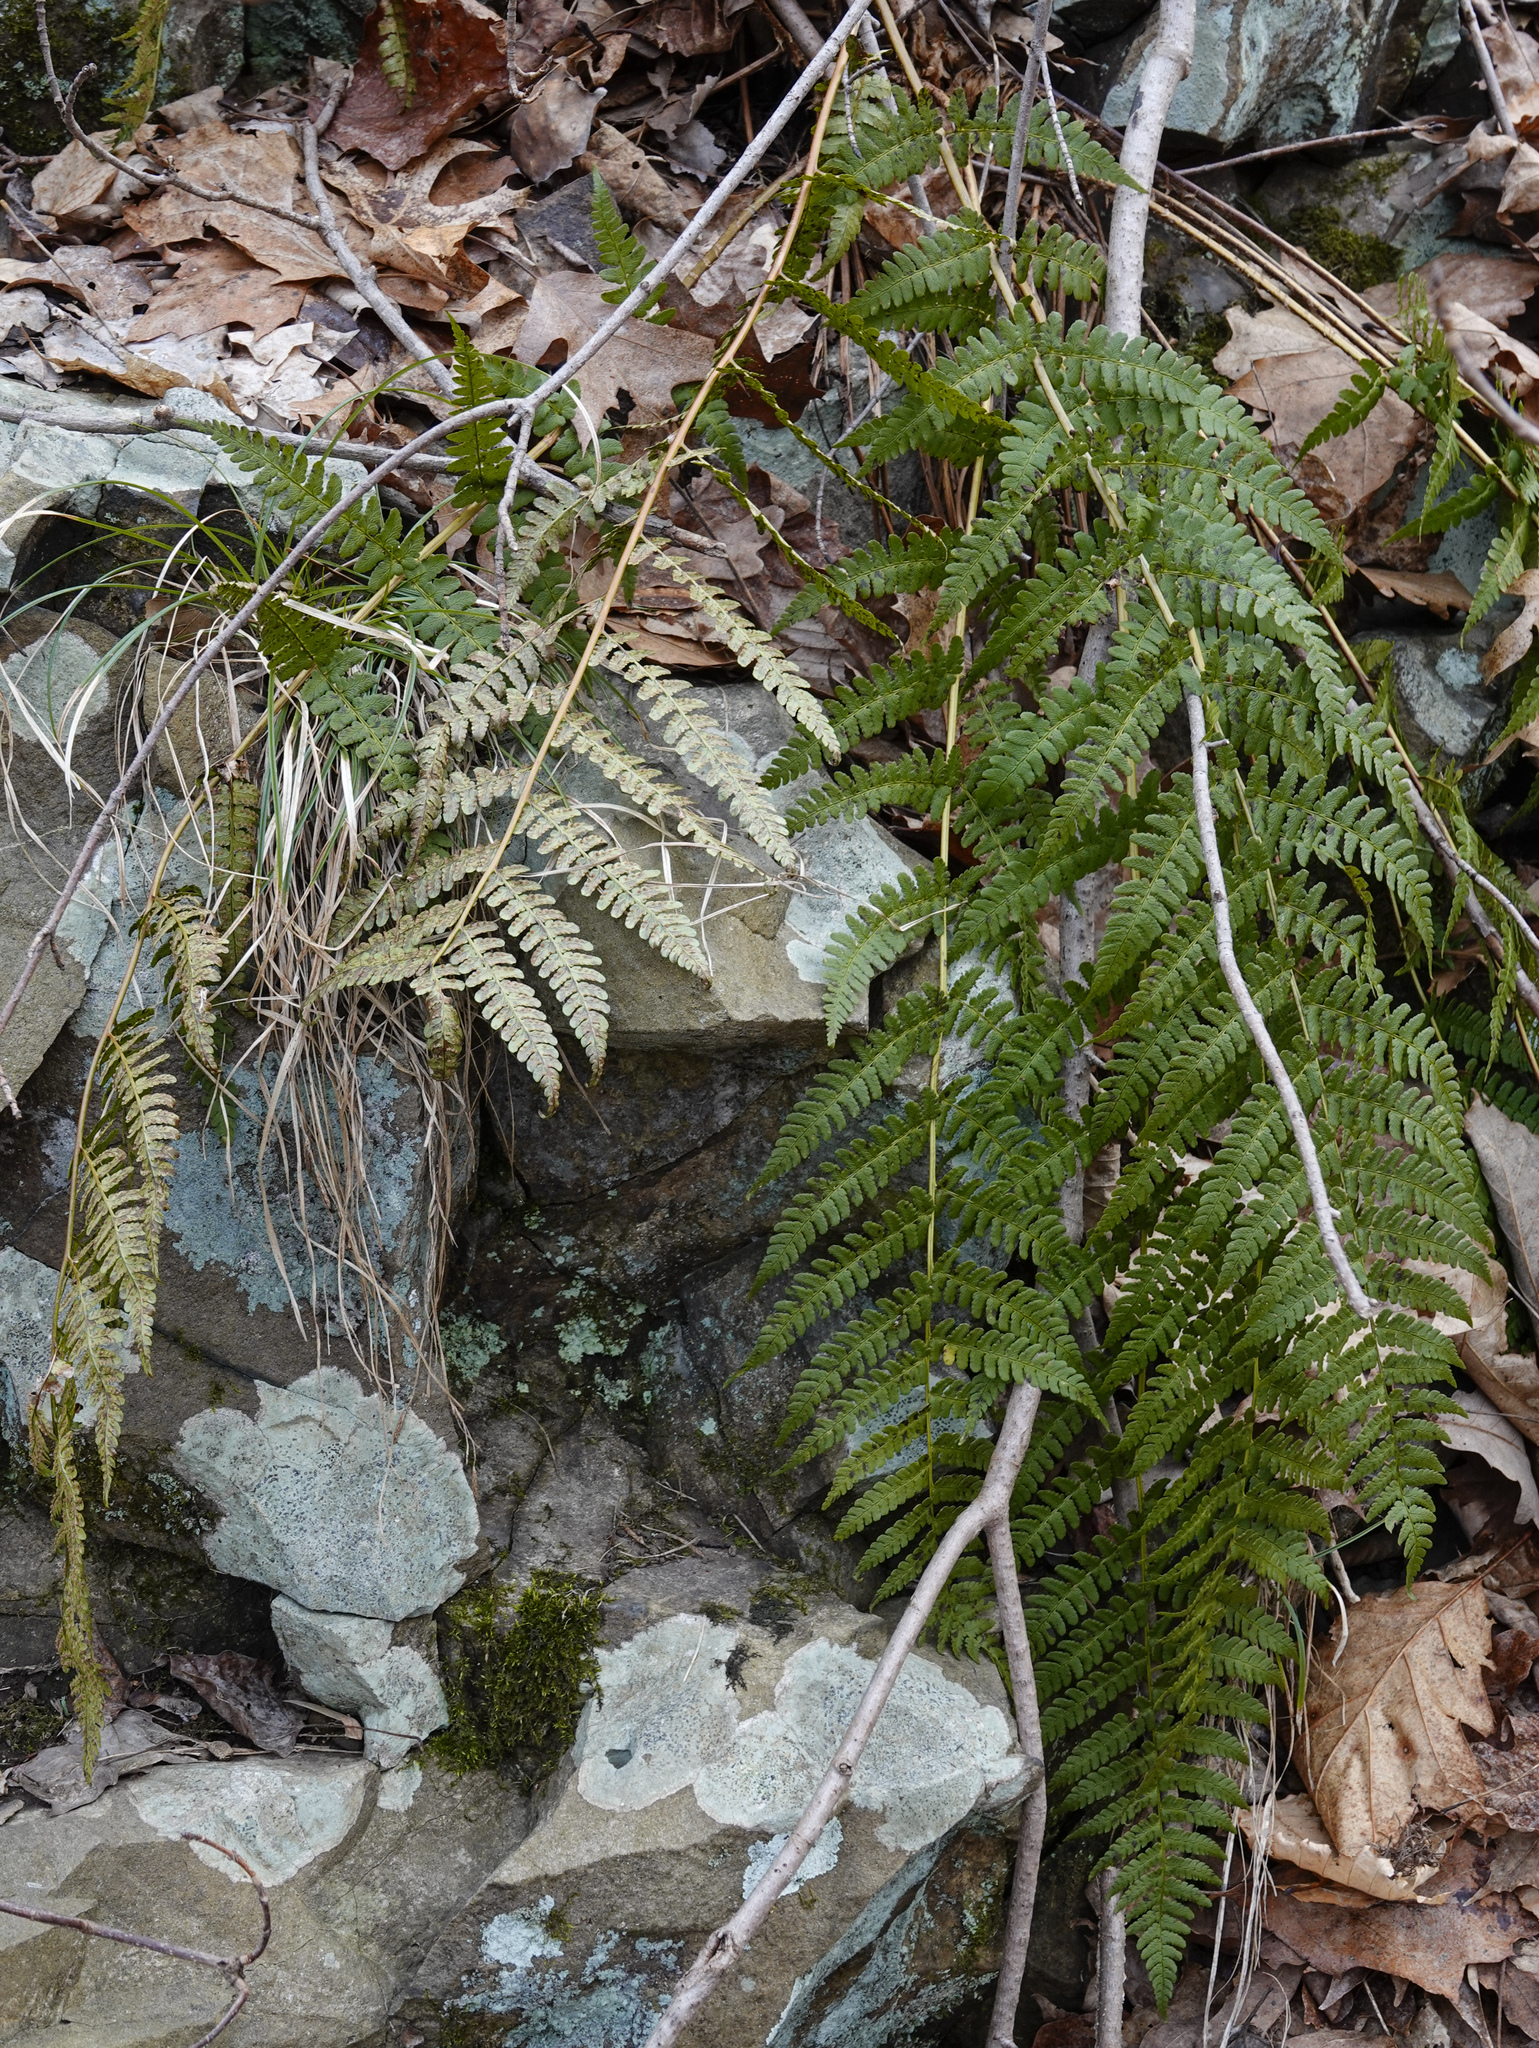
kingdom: Plantae
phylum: Tracheophyta
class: Polypodiopsida
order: Polypodiales
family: Dryopteridaceae
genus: Dryopteris
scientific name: Dryopteris marginalis
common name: Marginal wood fern
